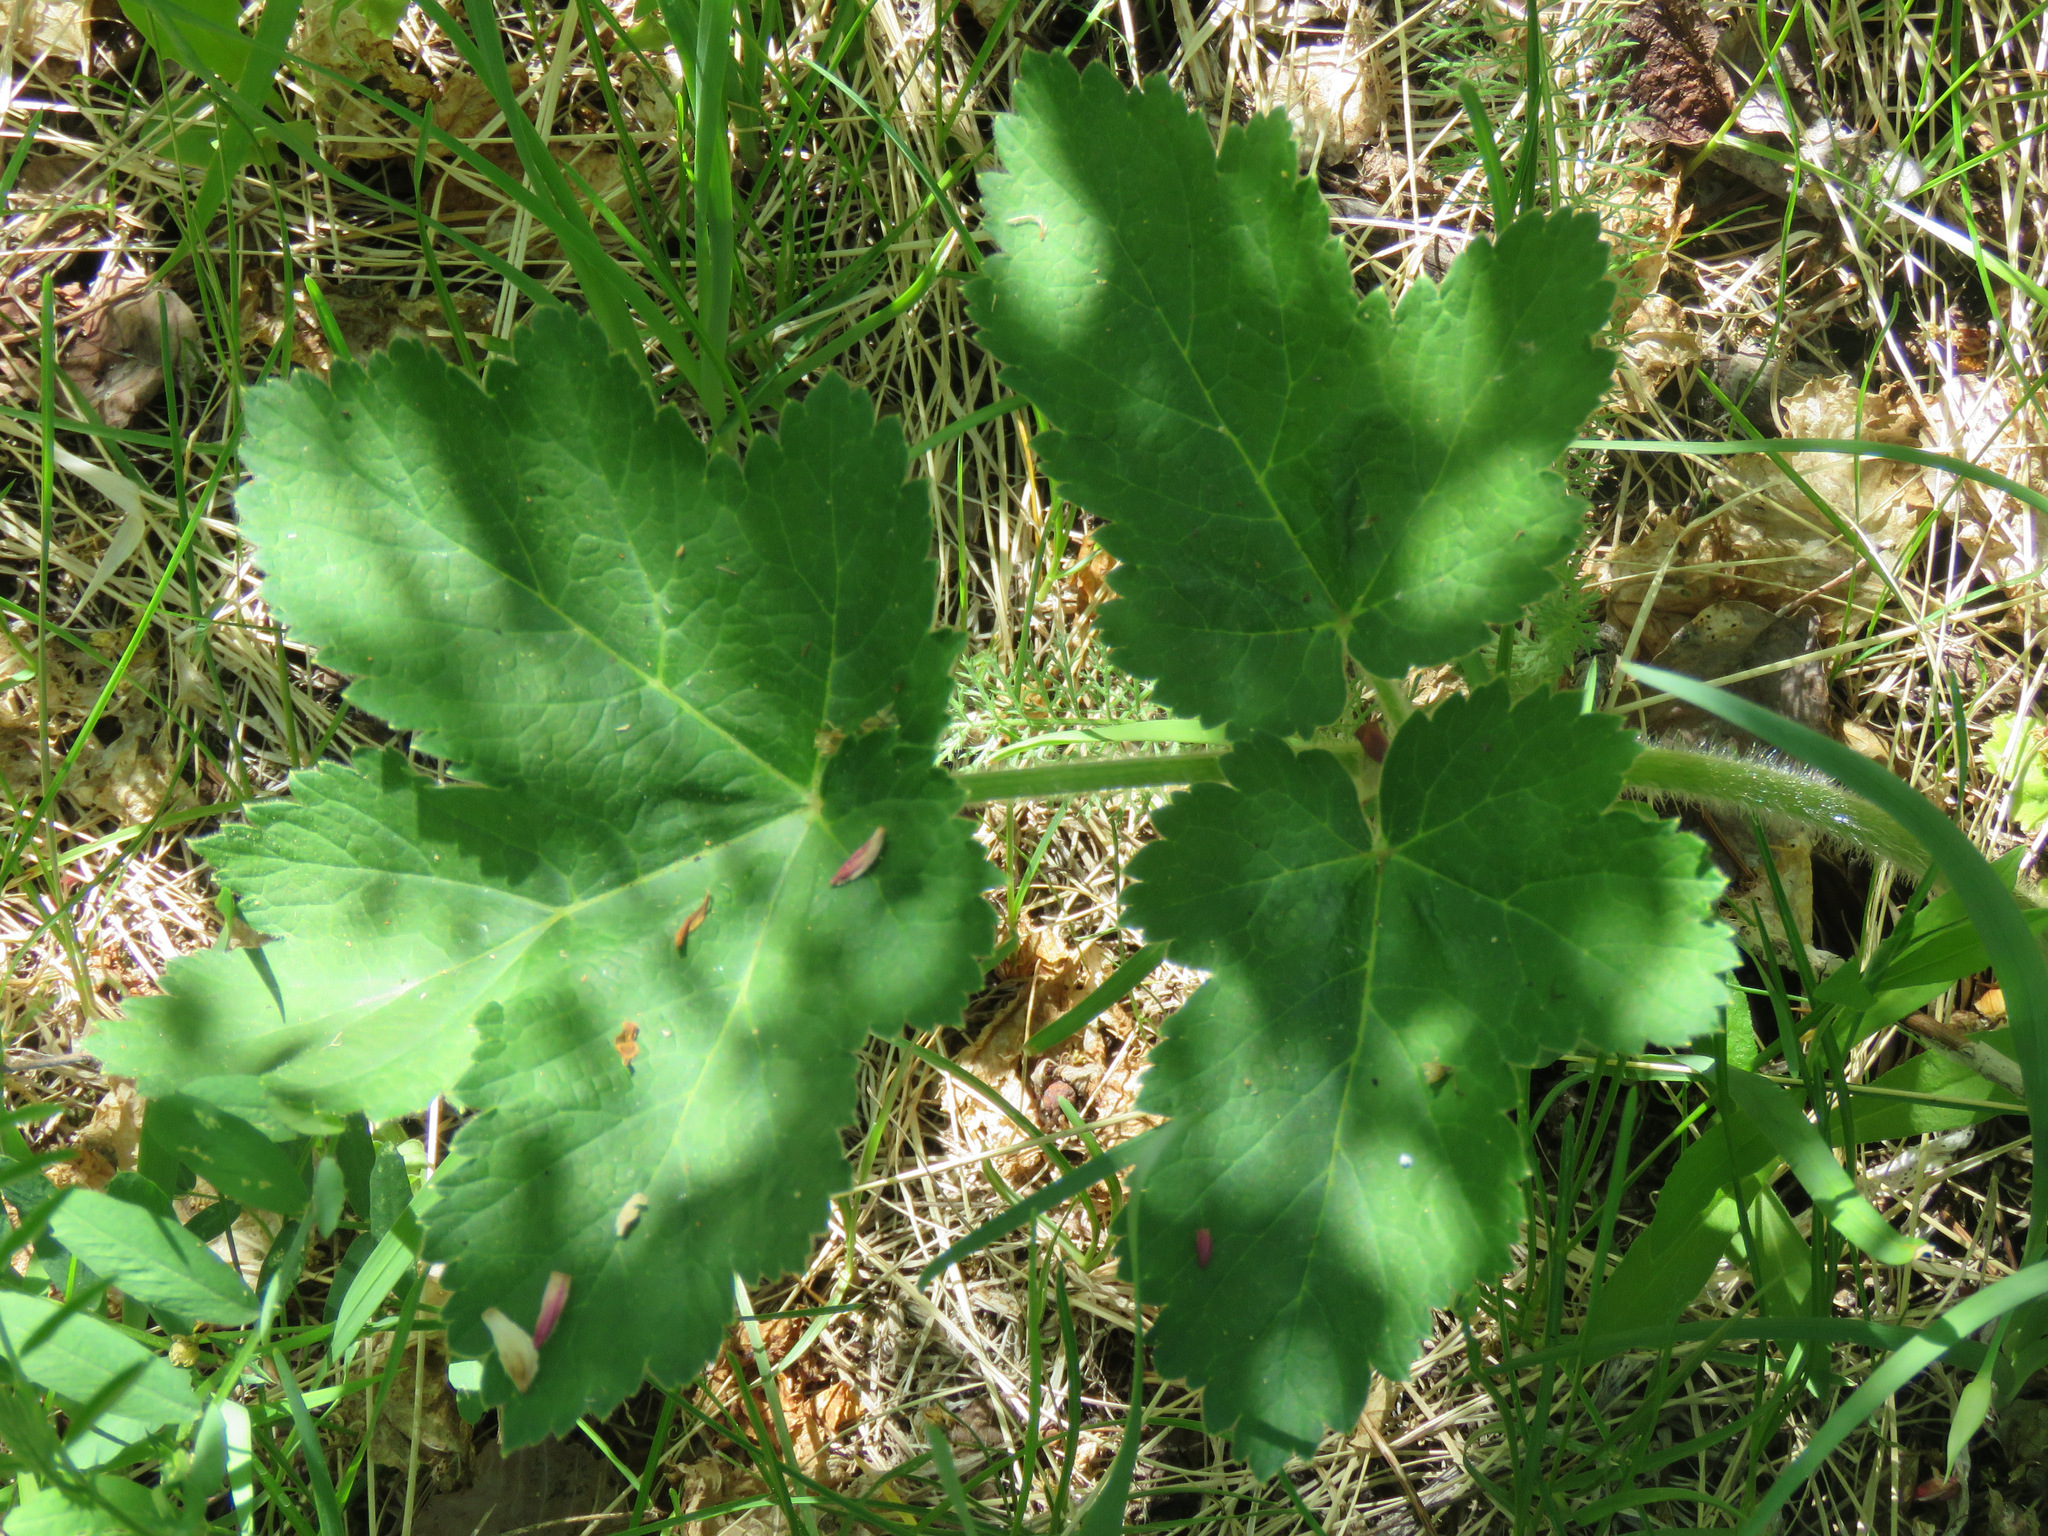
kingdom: Plantae
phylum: Tracheophyta
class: Magnoliopsida
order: Apiales
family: Apiaceae
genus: Heracleum
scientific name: Heracleum maximum
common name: American cow parsnip
